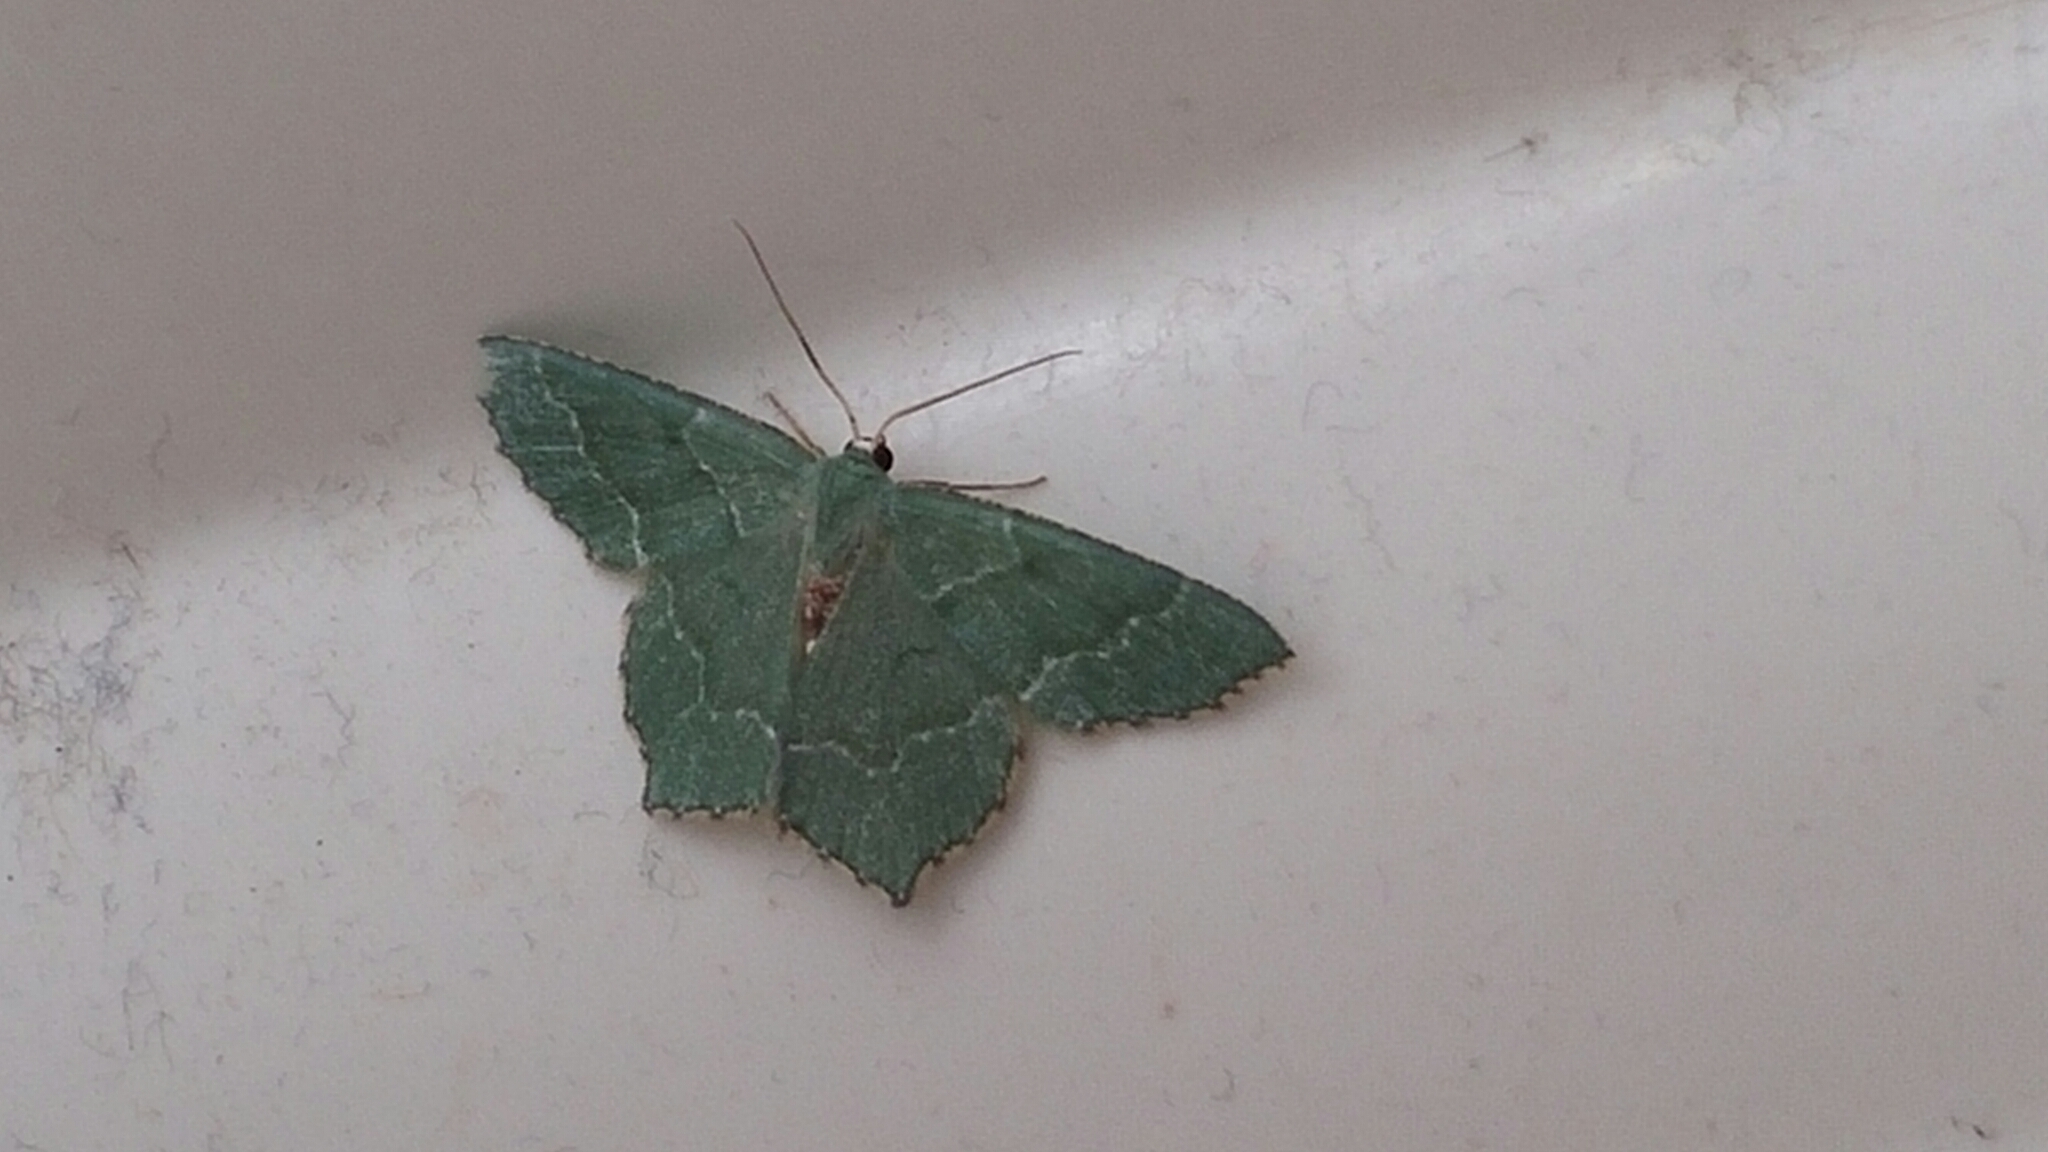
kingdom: Animalia
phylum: Arthropoda
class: Insecta
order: Lepidoptera
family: Geometridae
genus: Hemithea
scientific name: Hemithea aestivaria
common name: Common emerald
